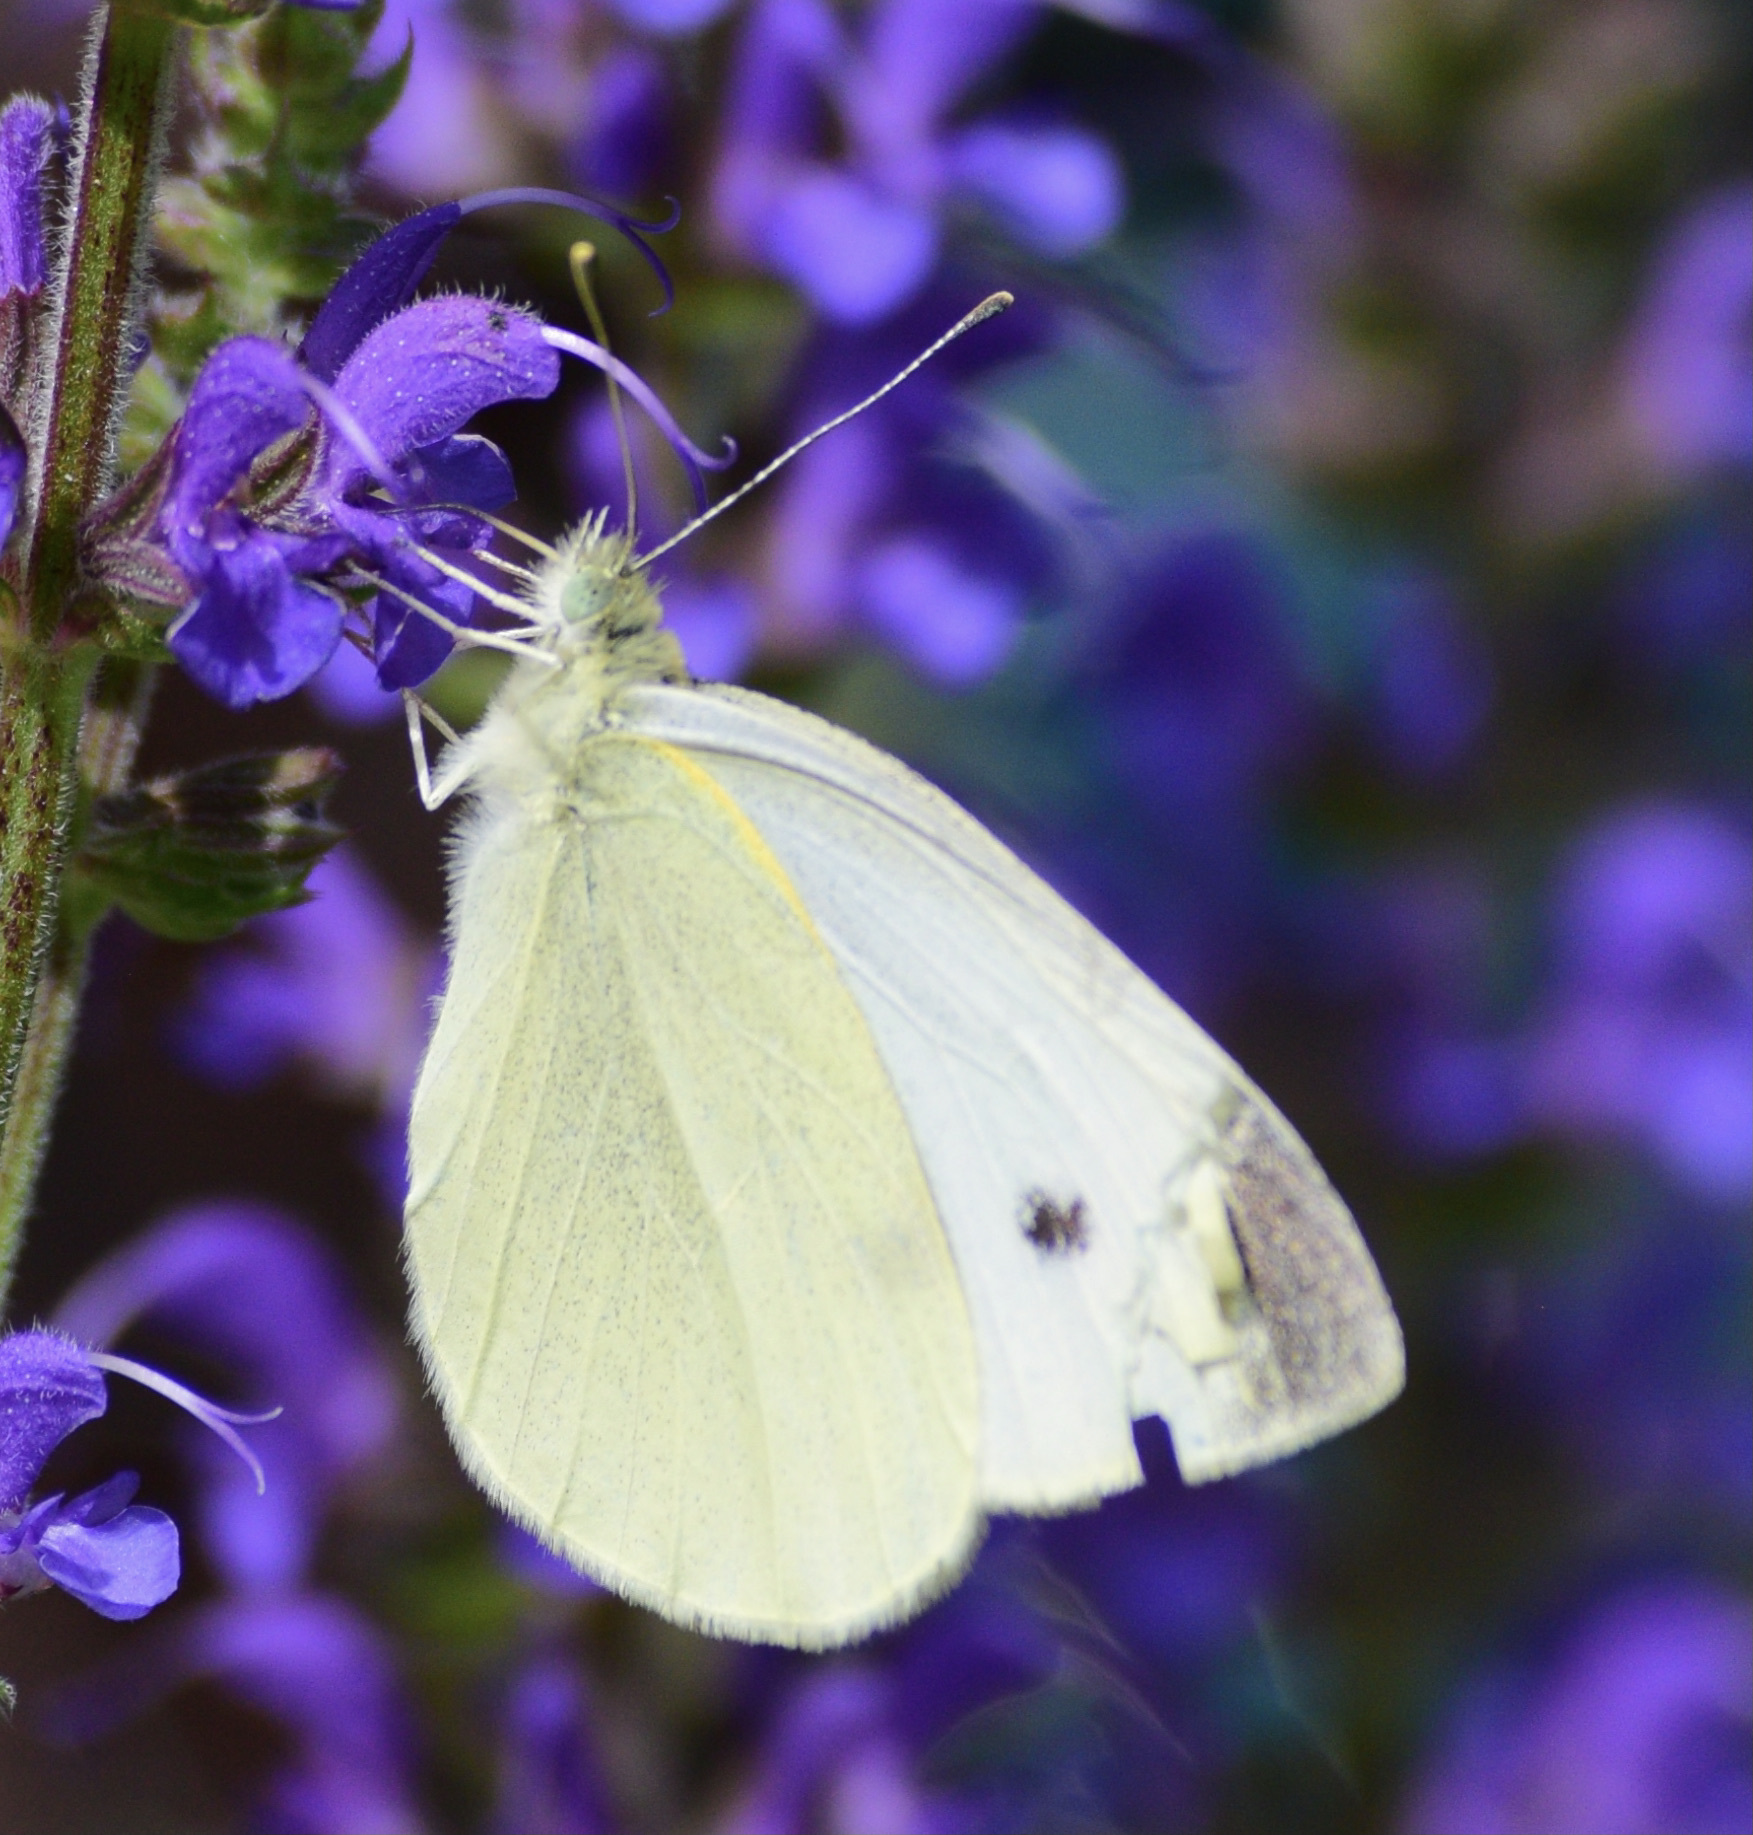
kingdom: Animalia
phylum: Arthropoda
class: Insecta
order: Lepidoptera
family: Pieridae
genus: Pieris
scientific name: Pieris rapae
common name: Small white
